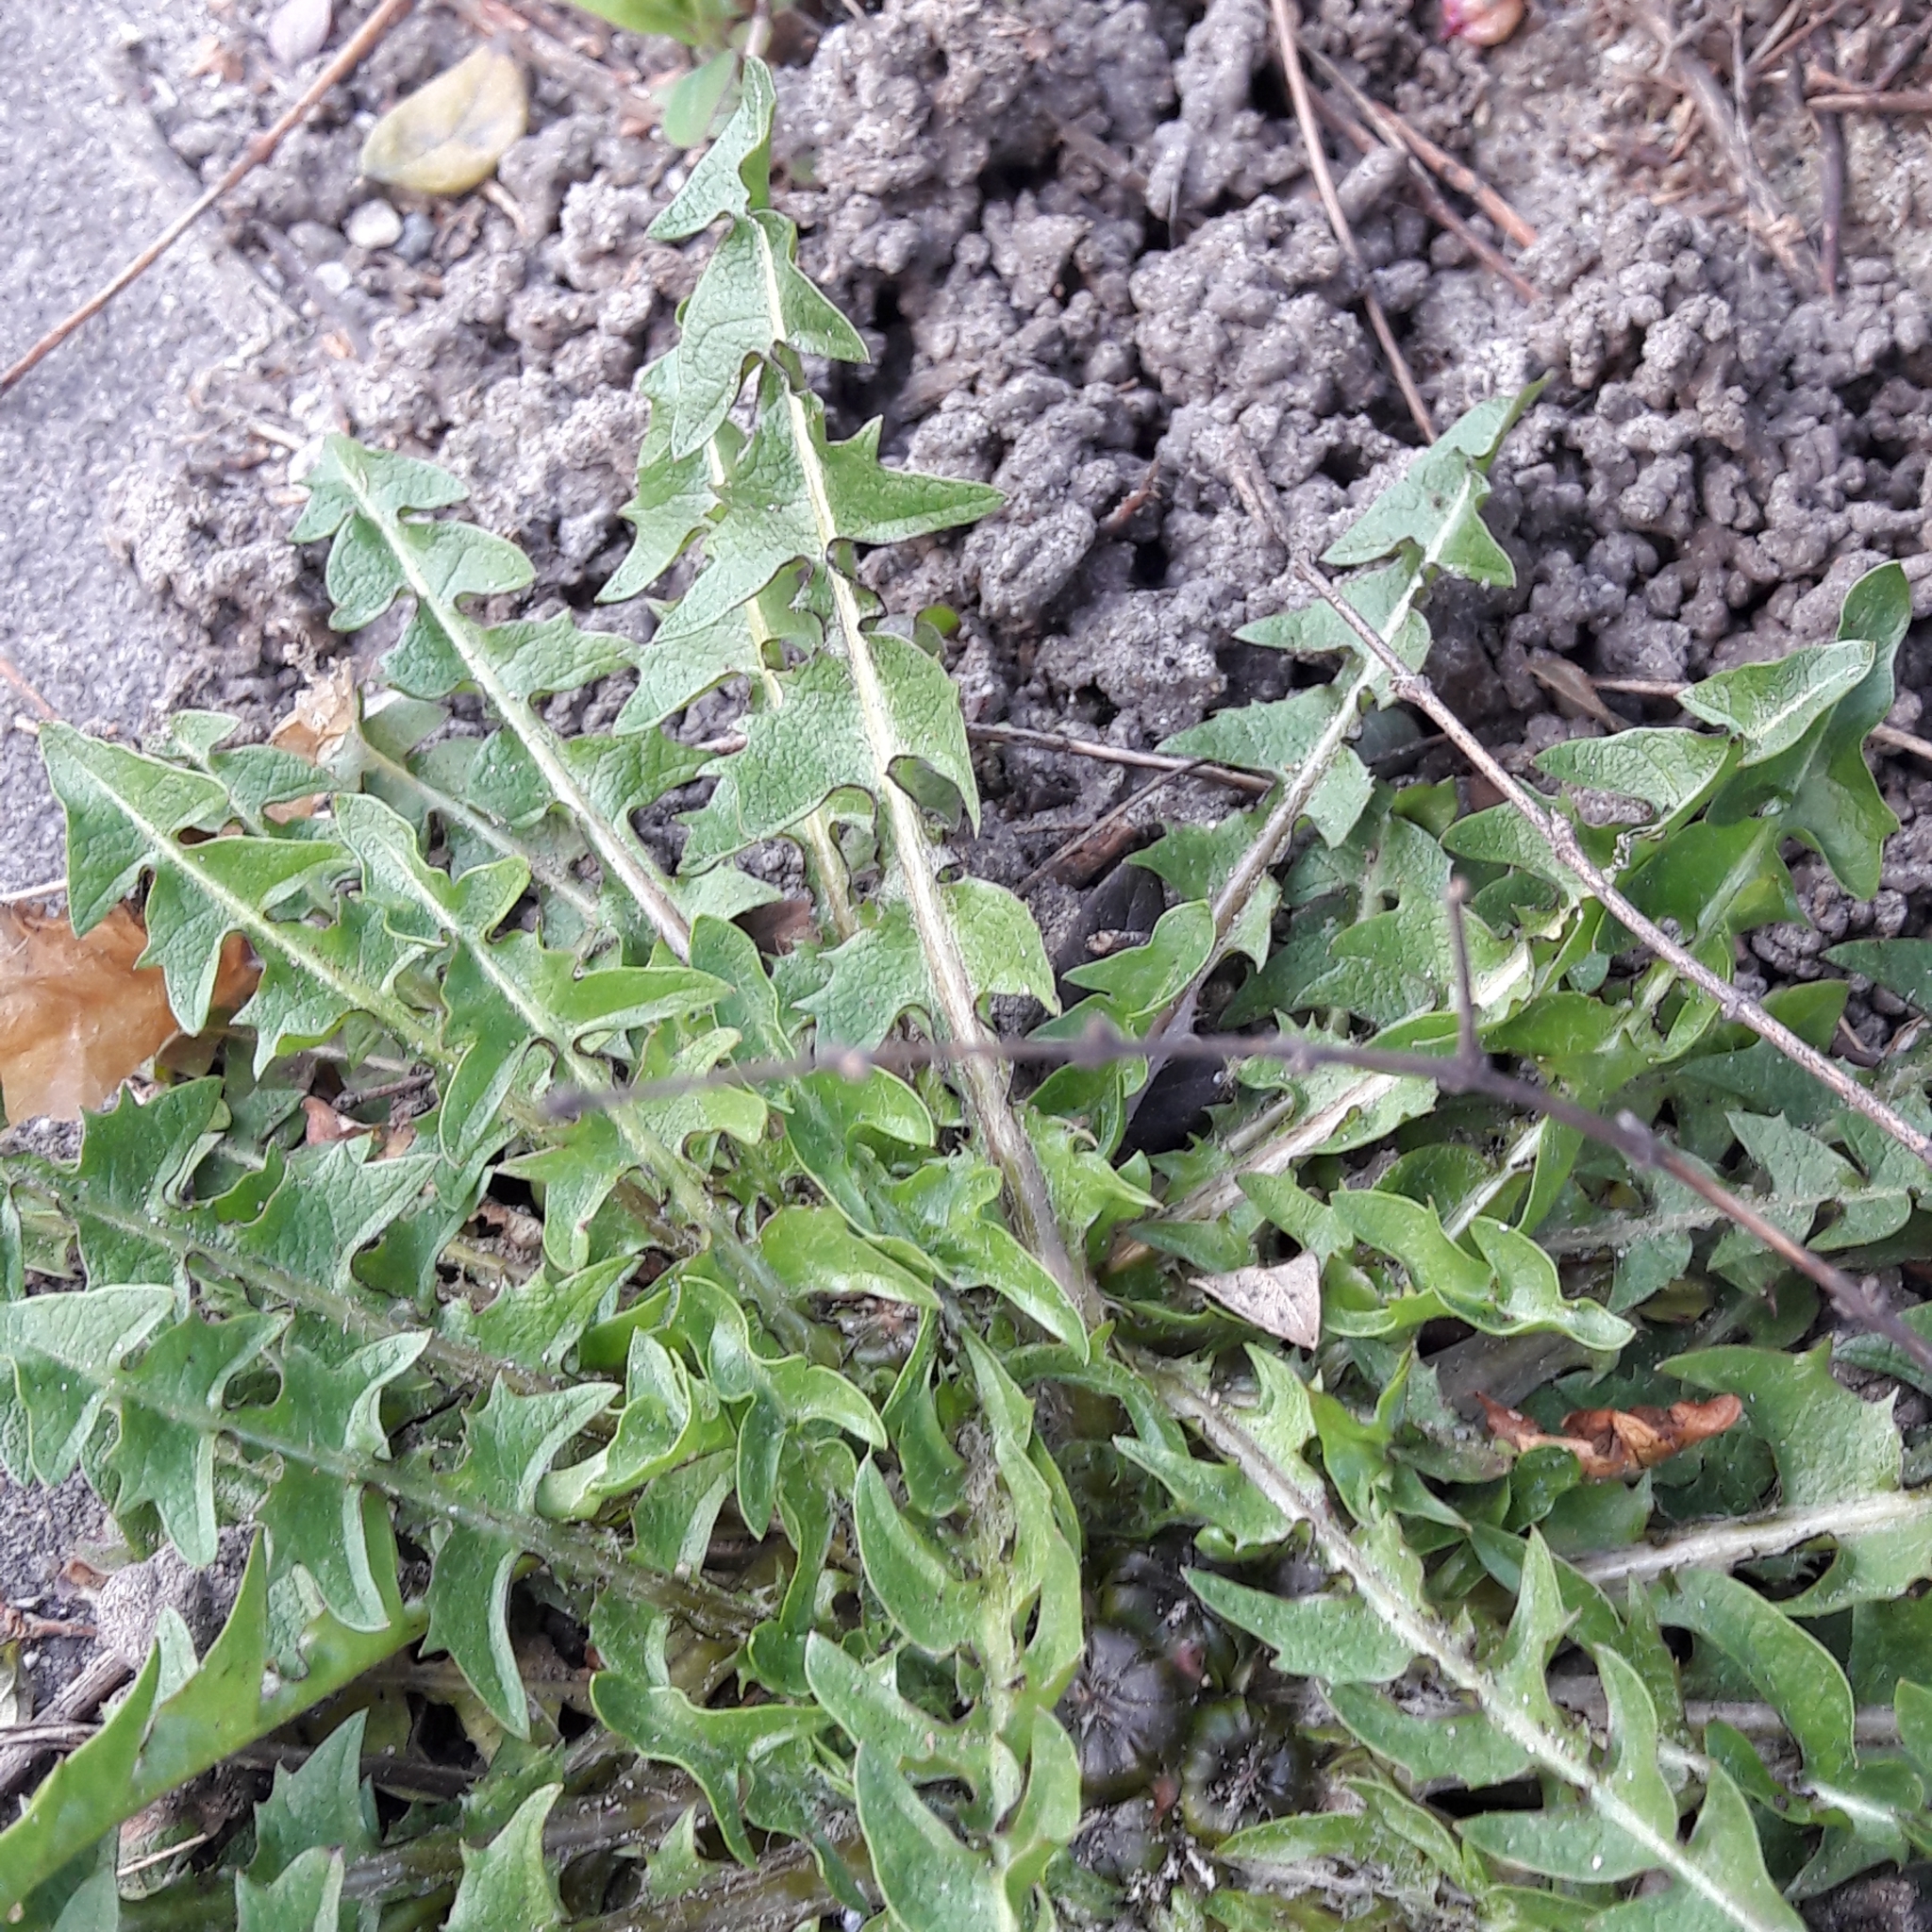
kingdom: Plantae
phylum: Tracheophyta
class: Magnoliopsida
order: Asterales
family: Asteraceae
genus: Taraxacum
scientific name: Taraxacum officinale
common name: Common dandelion
